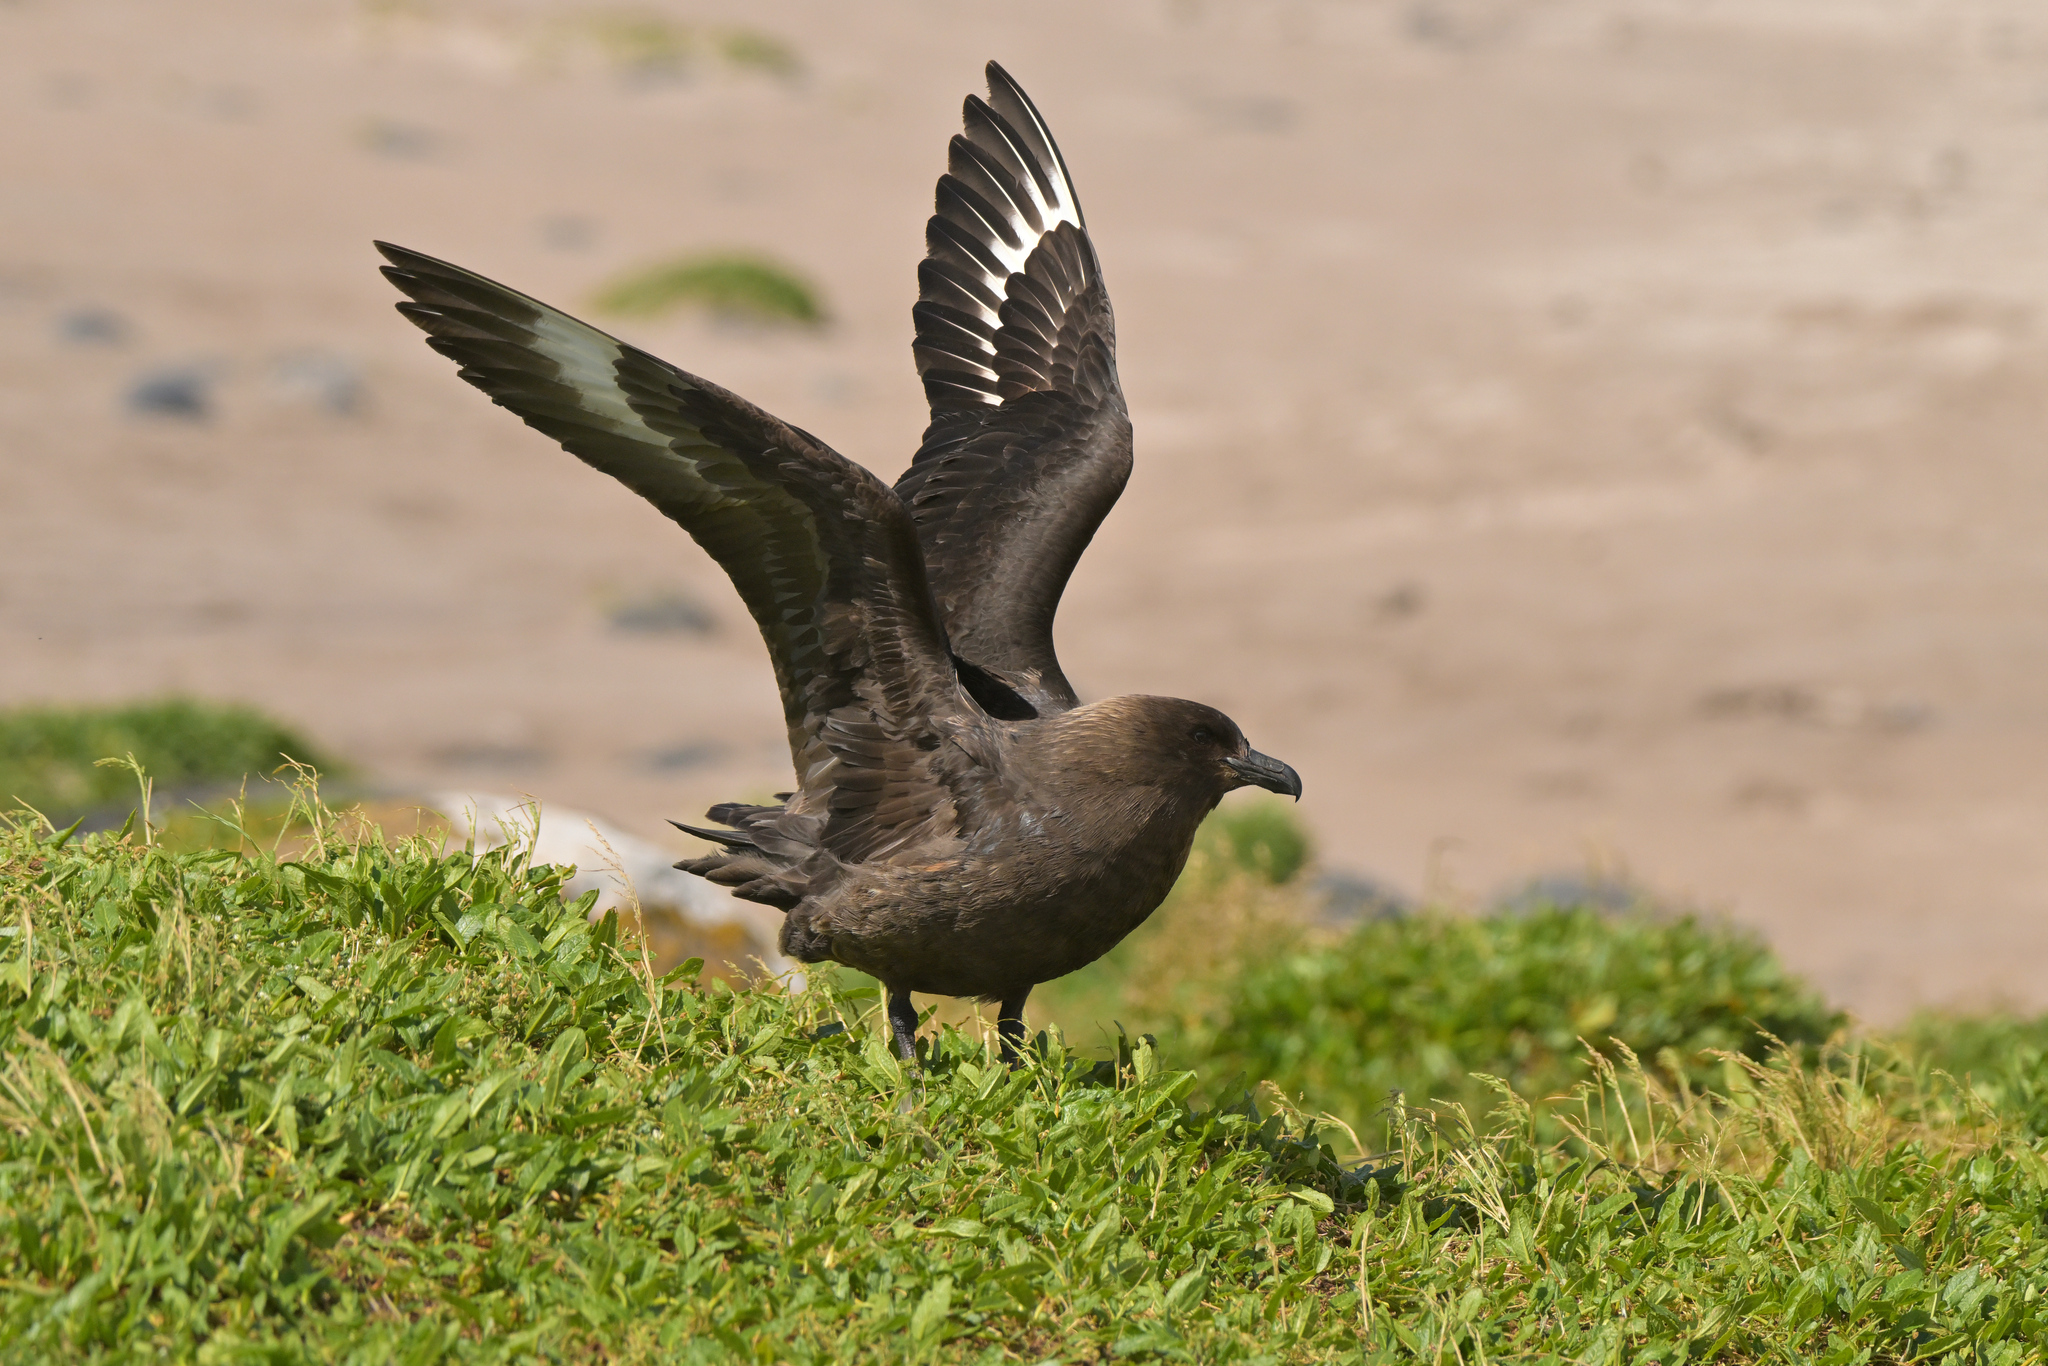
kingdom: Animalia
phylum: Chordata
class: Aves
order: Charadriiformes
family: Stercorariidae
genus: Stercorarius
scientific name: Stercorarius antarcticus
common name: Brown skua
